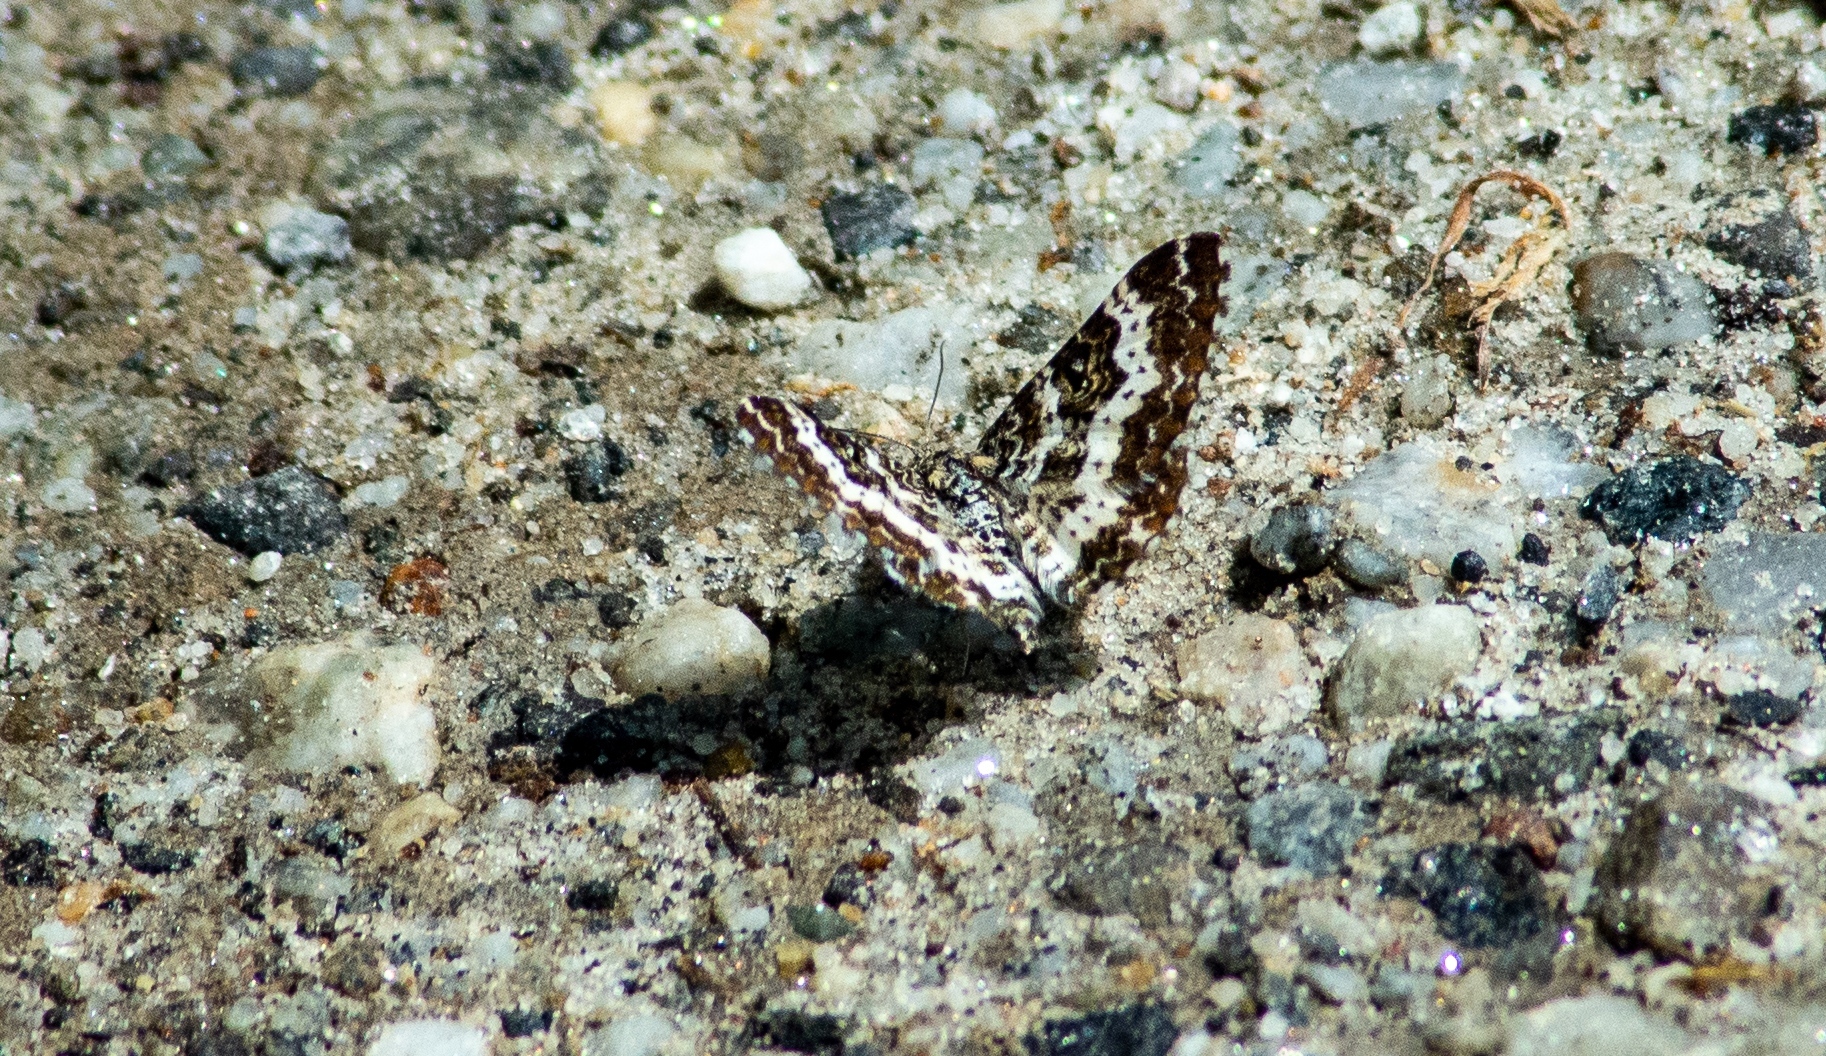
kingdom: Animalia
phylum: Arthropoda
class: Insecta
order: Lepidoptera
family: Geometridae
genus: Epirrhoe
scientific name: Epirrhoe tristata
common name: Small argent & sable
